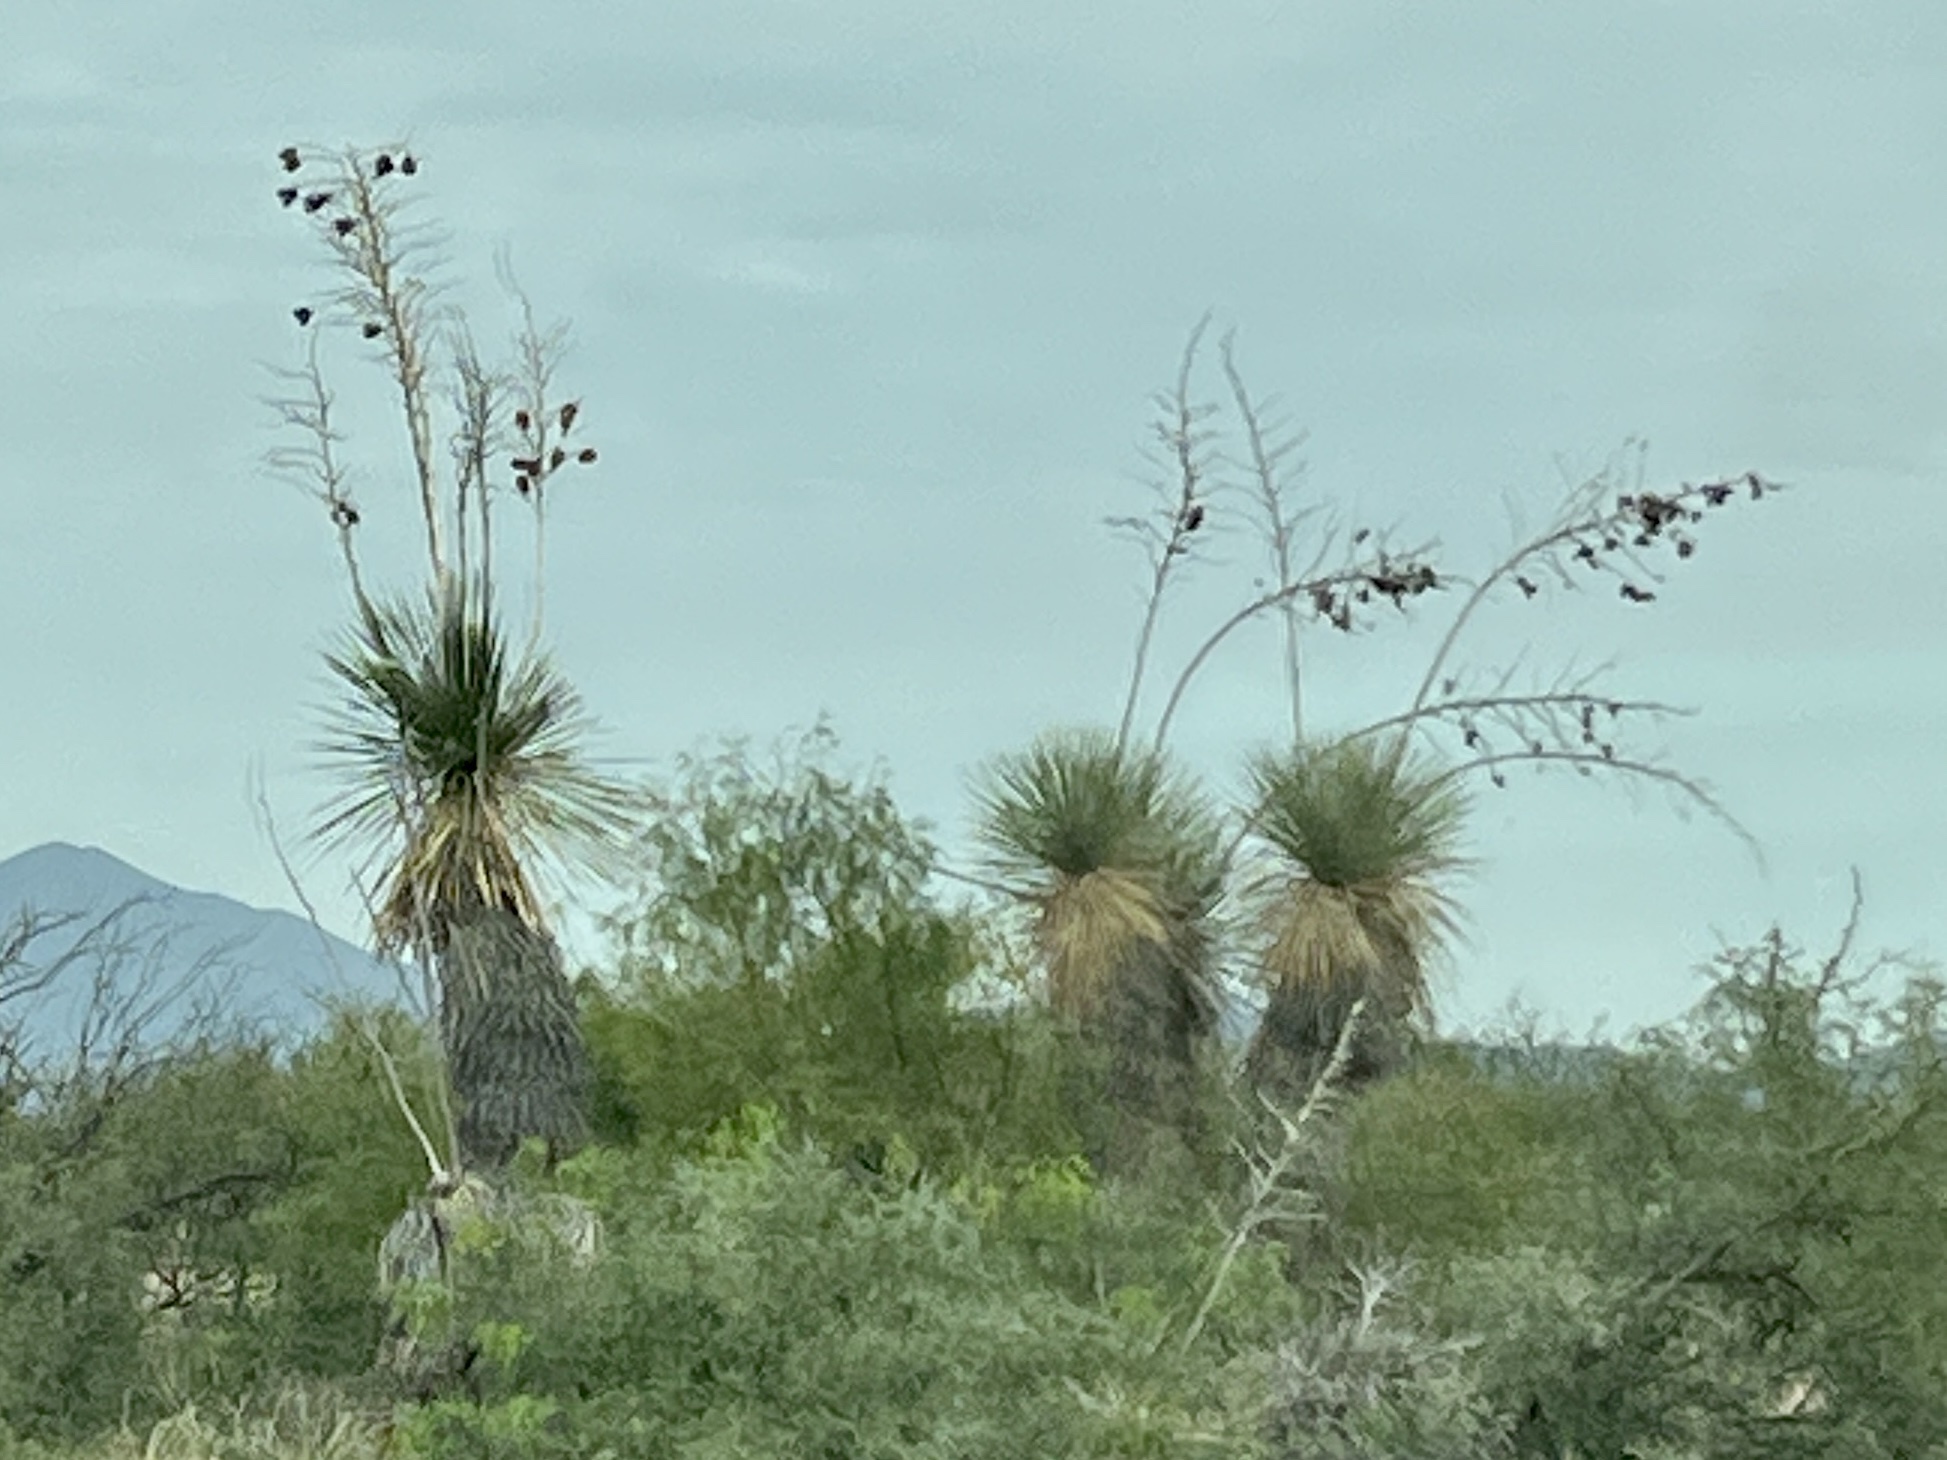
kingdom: Plantae
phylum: Tracheophyta
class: Liliopsida
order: Asparagales
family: Asparagaceae
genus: Yucca
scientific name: Yucca elata
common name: Palmella
